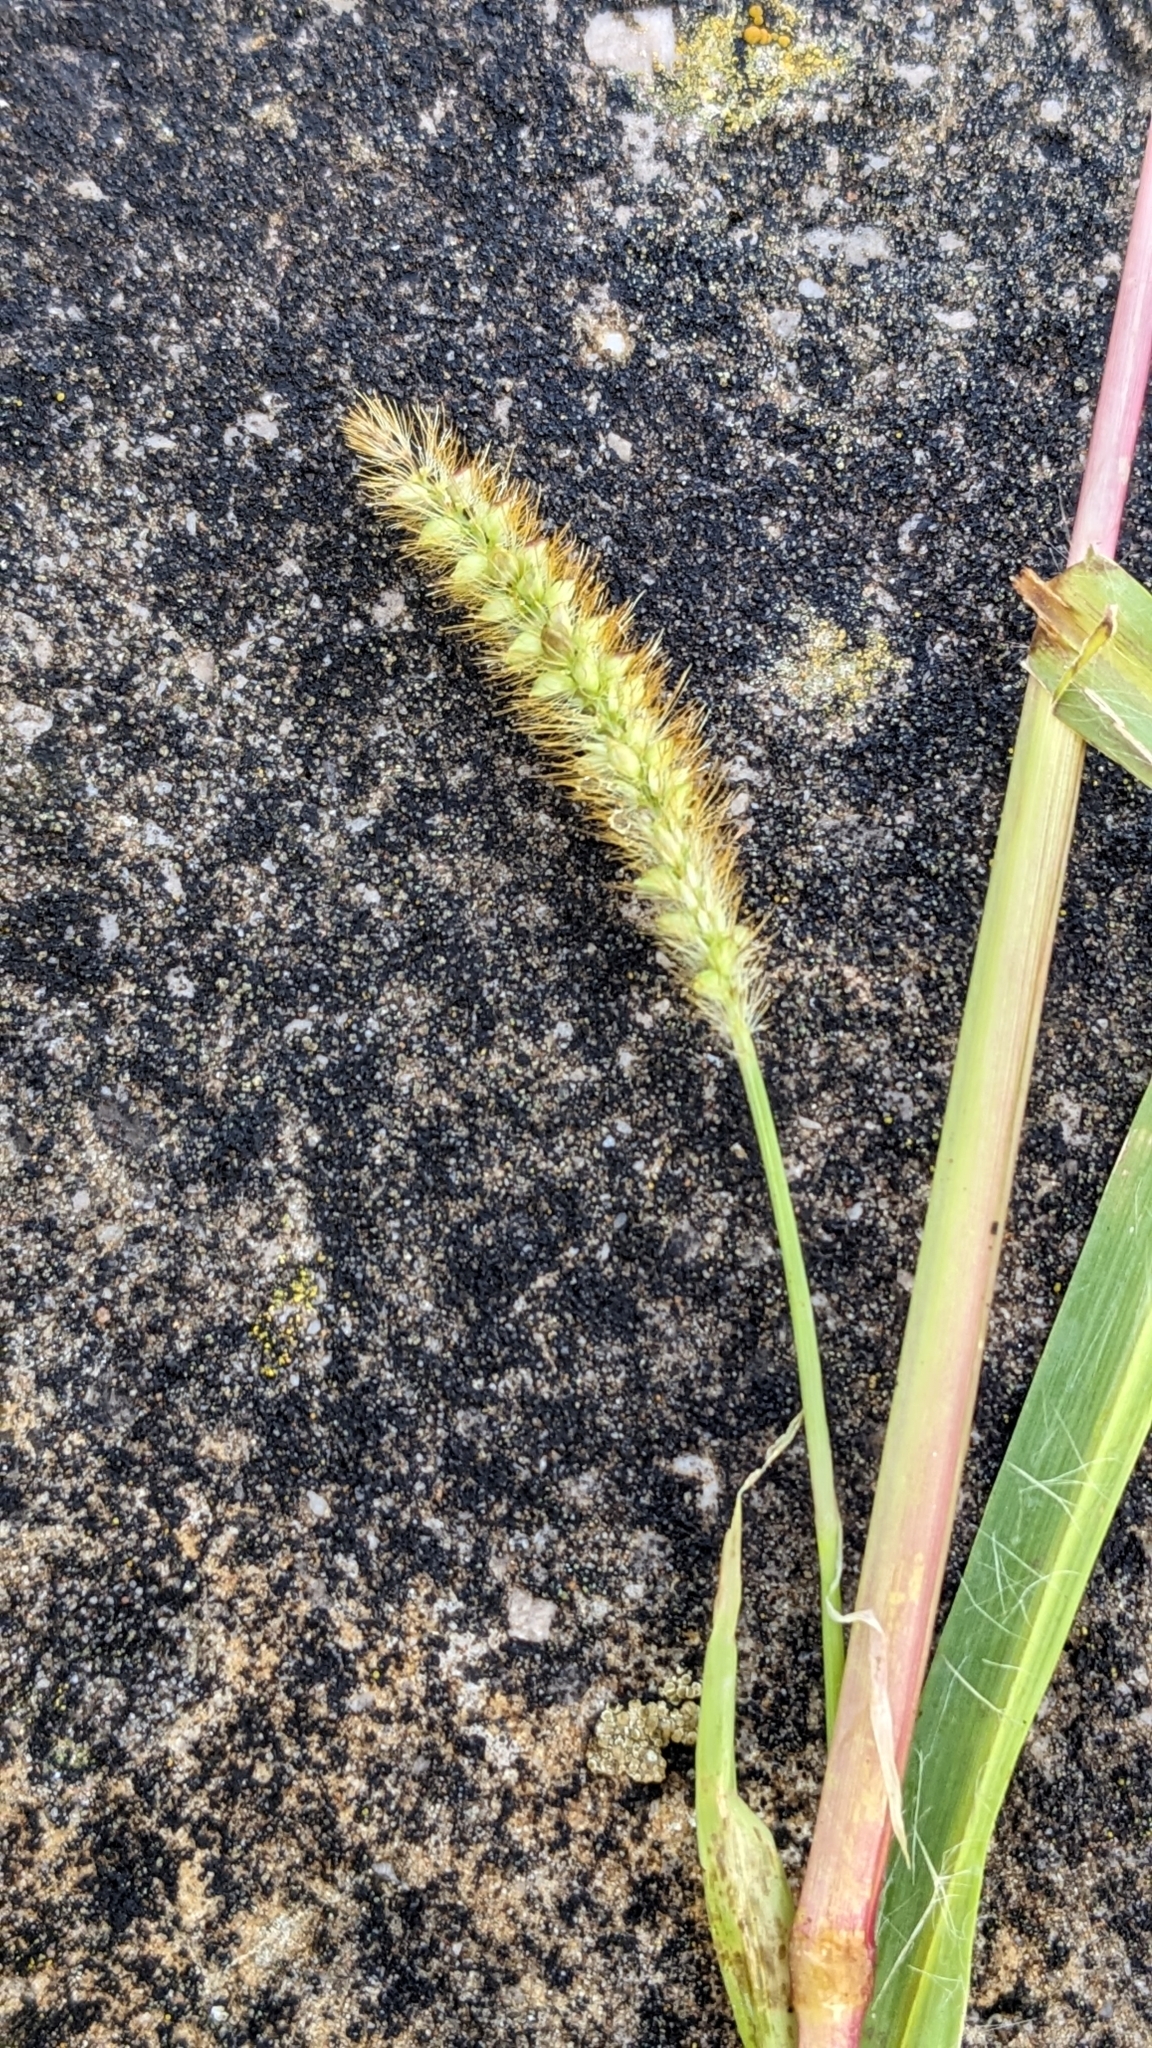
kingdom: Plantae
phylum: Tracheophyta
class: Liliopsida
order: Poales
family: Poaceae
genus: Setaria
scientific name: Setaria pumila
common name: Yellow bristle-grass
